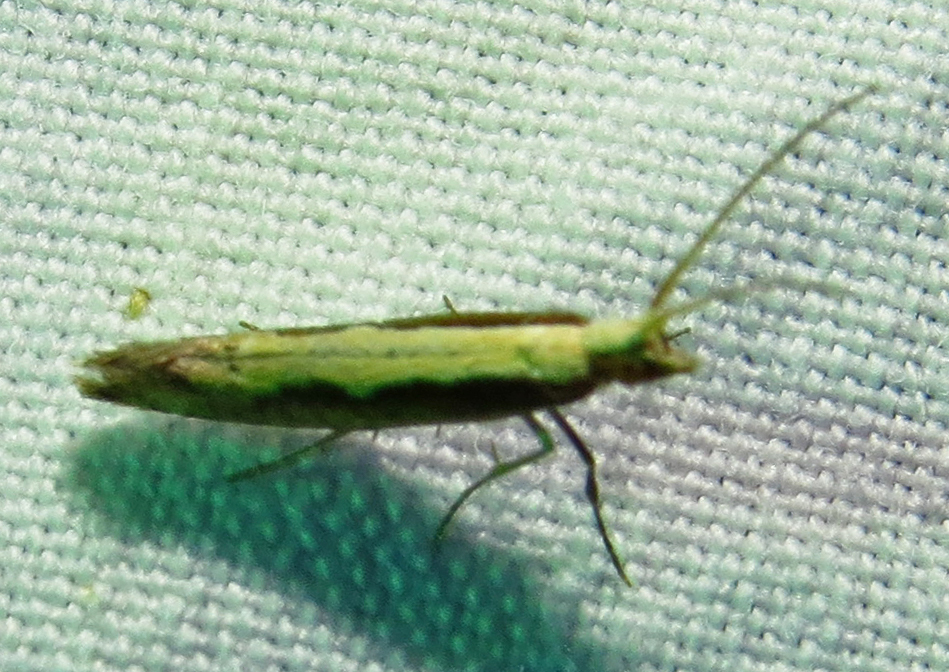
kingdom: Animalia
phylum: Arthropoda
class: Insecta
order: Lepidoptera
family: Plutellidae
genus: Plutella
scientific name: Plutella xylostella
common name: Diamond-back moth
